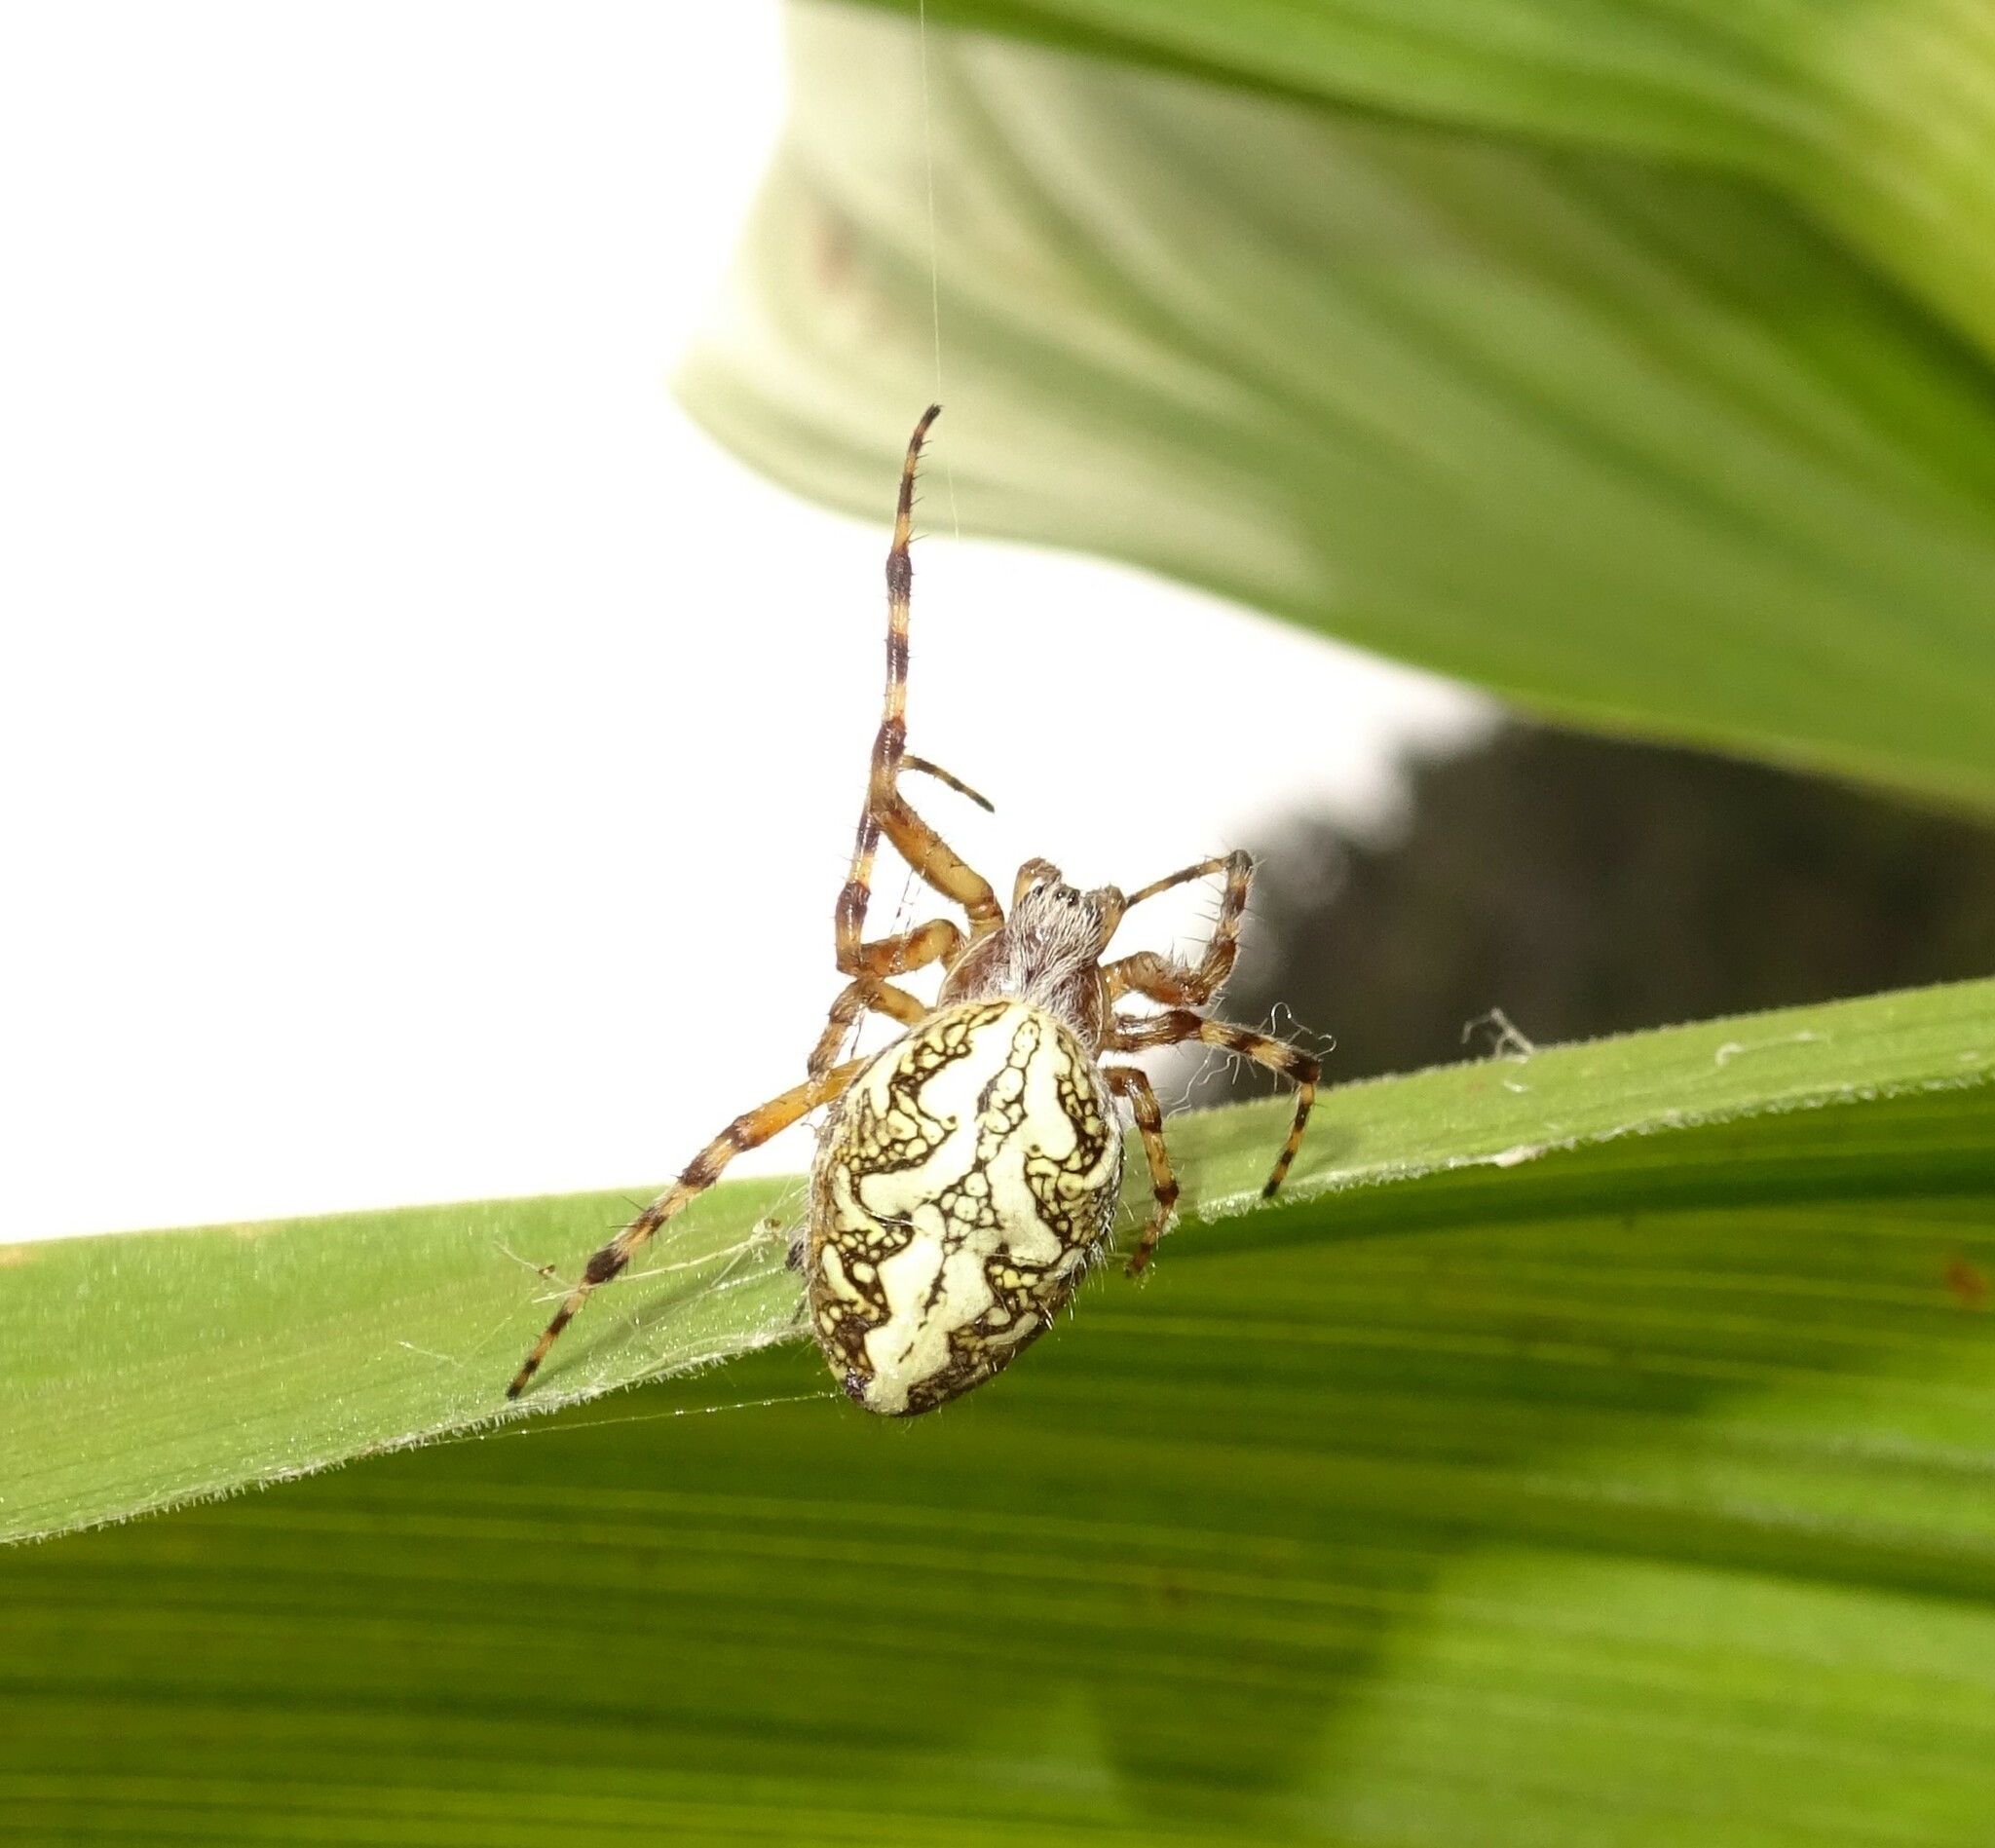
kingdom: Animalia
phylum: Arthropoda
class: Arachnida
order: Araneae
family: Araneidae
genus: Aculepeira
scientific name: Aculepeira ceropegia
